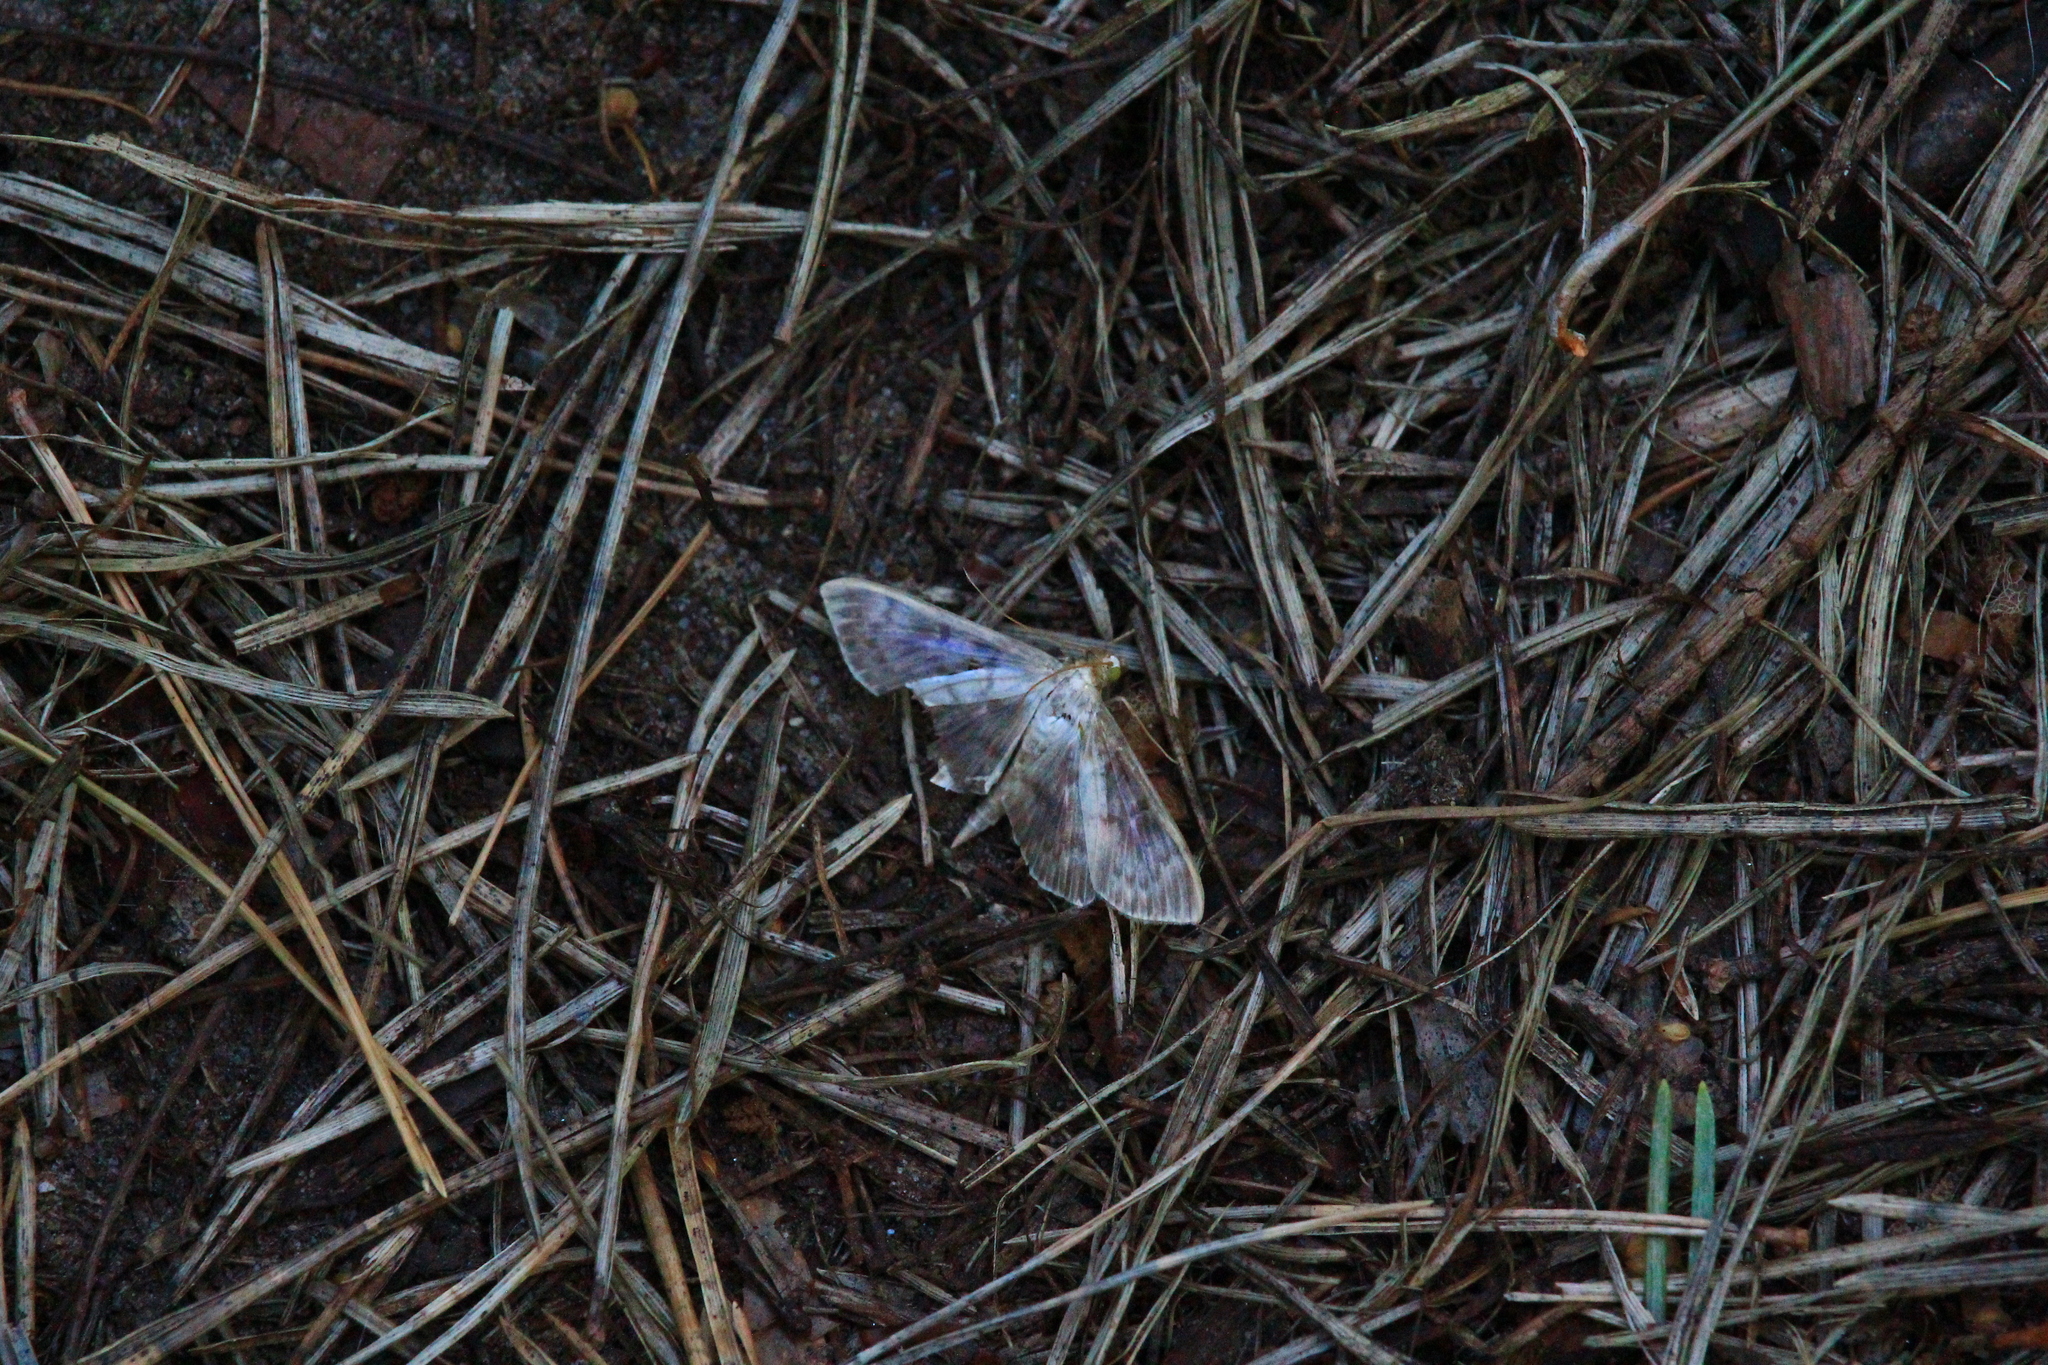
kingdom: Animalia
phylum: Arthropoda
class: Insecta
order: Lepidoptera
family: Crambidae
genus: Patania
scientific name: Patania ruralis
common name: Mother of pearl
